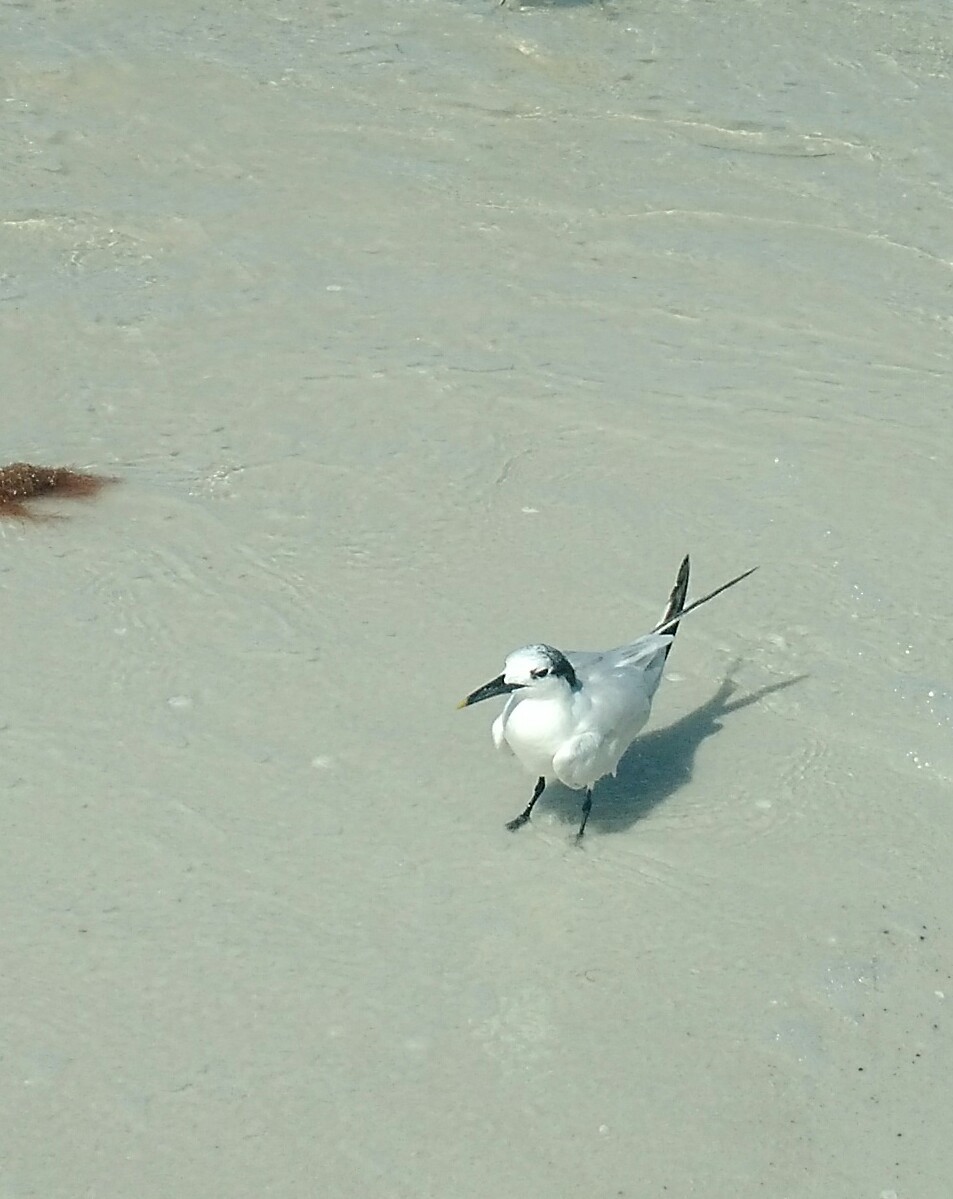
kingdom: Animalia
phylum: Chordata
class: Aves
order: Charadriiformes
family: Laridae
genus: Thalasseus
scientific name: Thalasseus sandvicensis
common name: Sandwich tern
